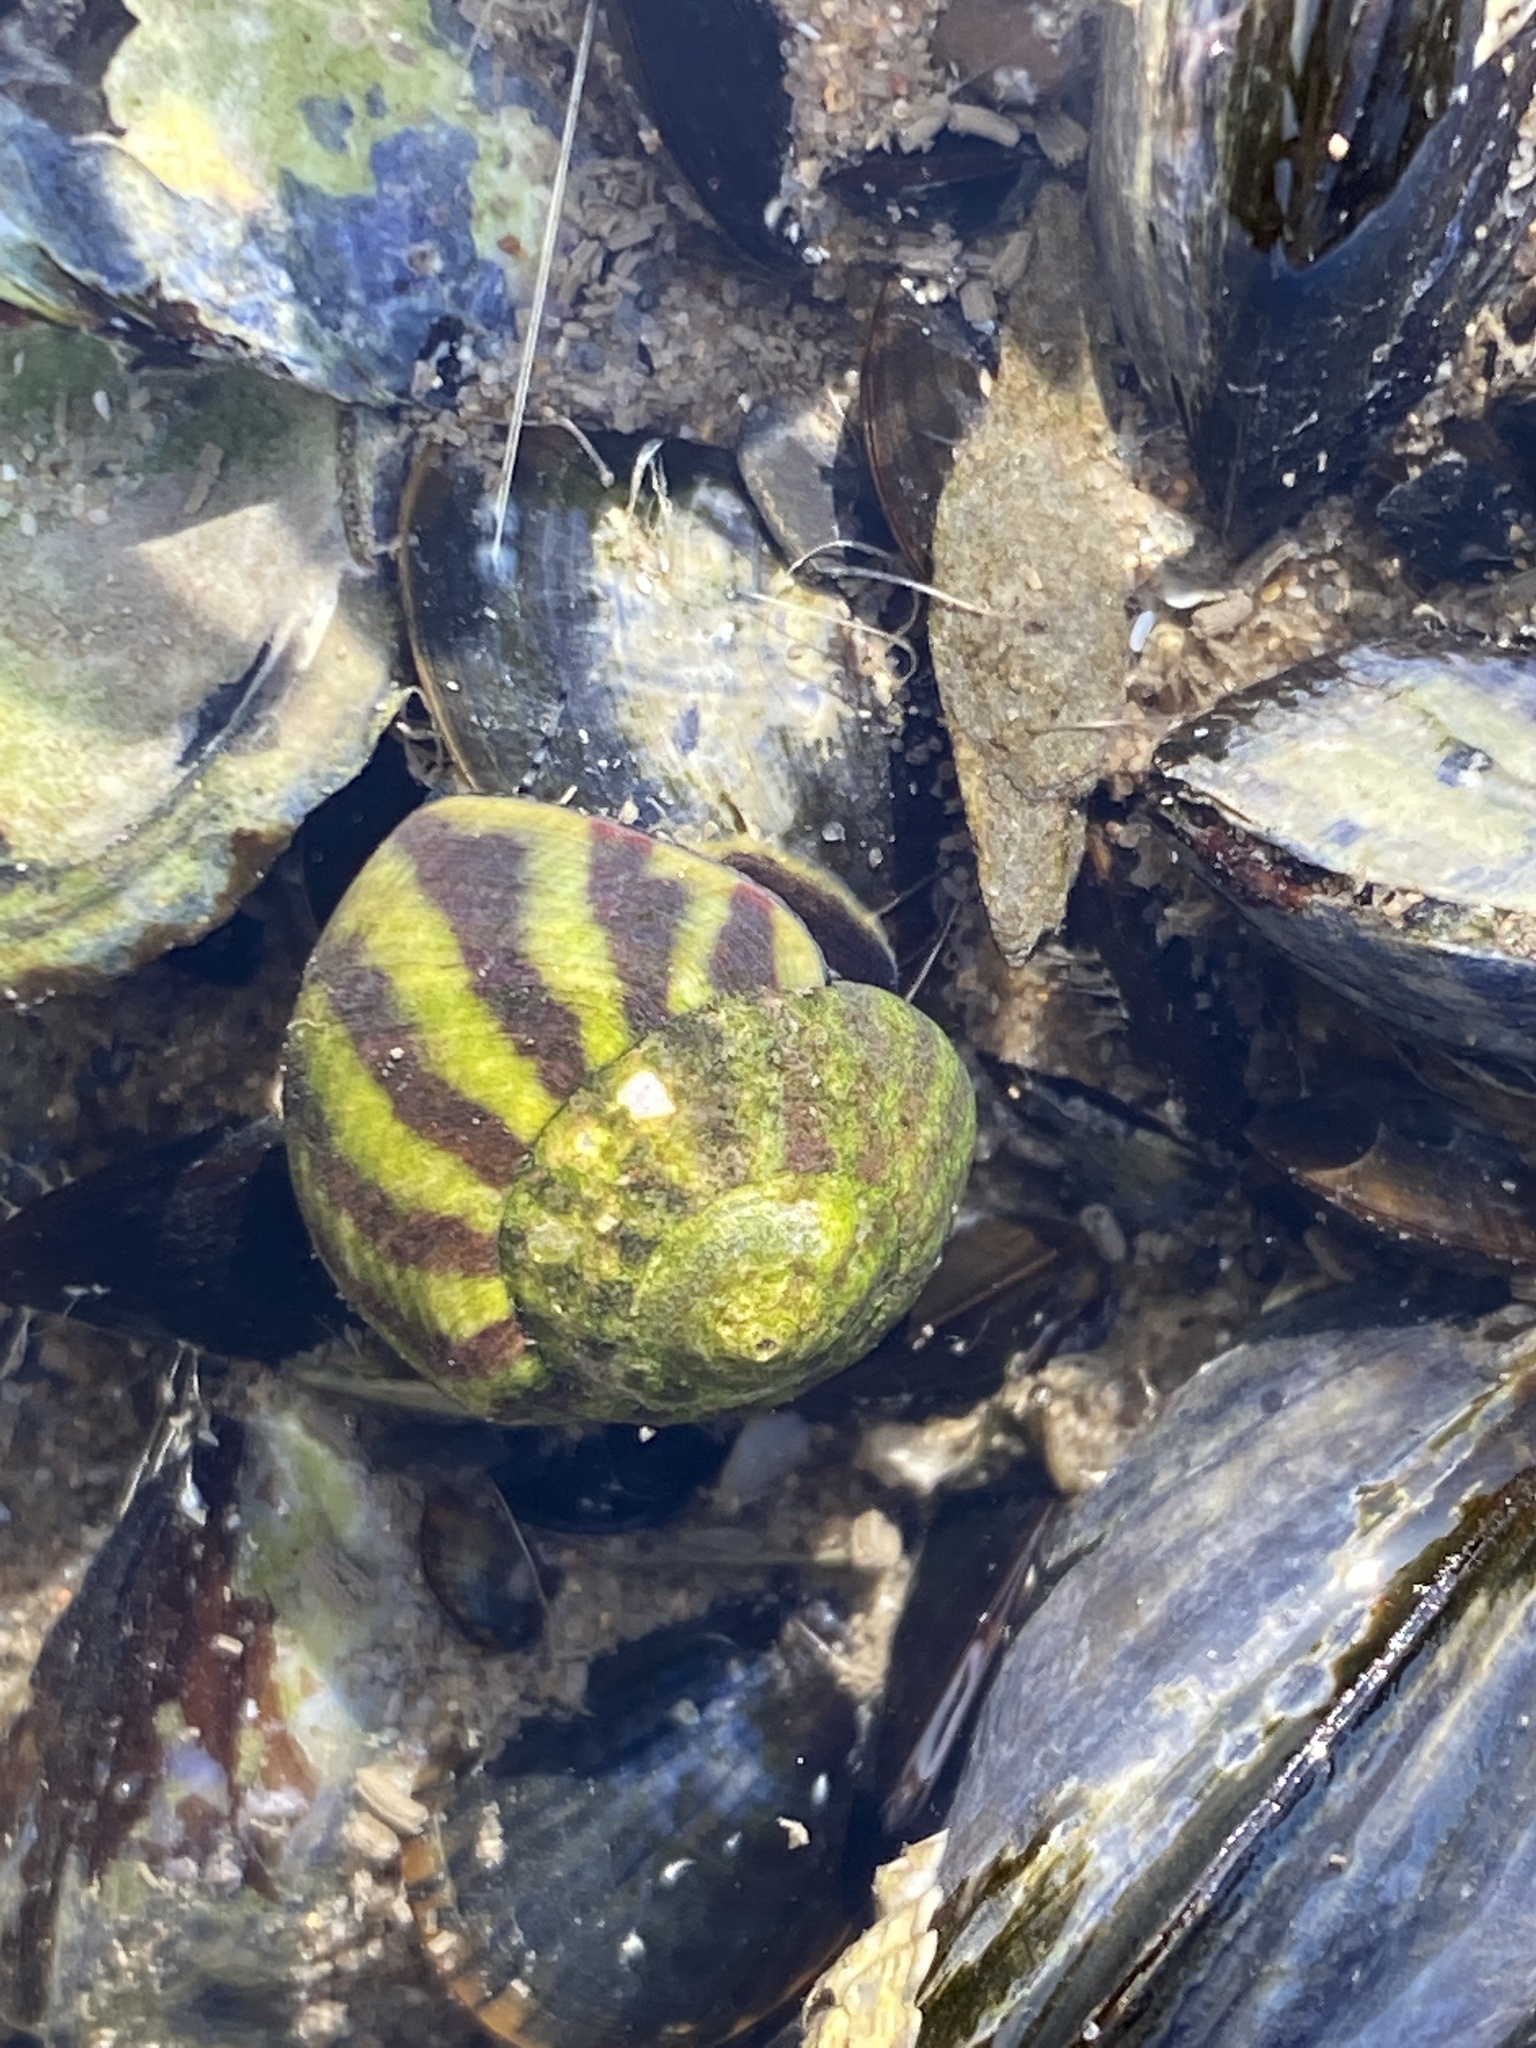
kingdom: Animalia
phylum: Mollusca
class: Gastropoda
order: Trochida
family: Trochidae
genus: Steromphala
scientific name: Steromphala umbilicalis
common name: Flat top shell
